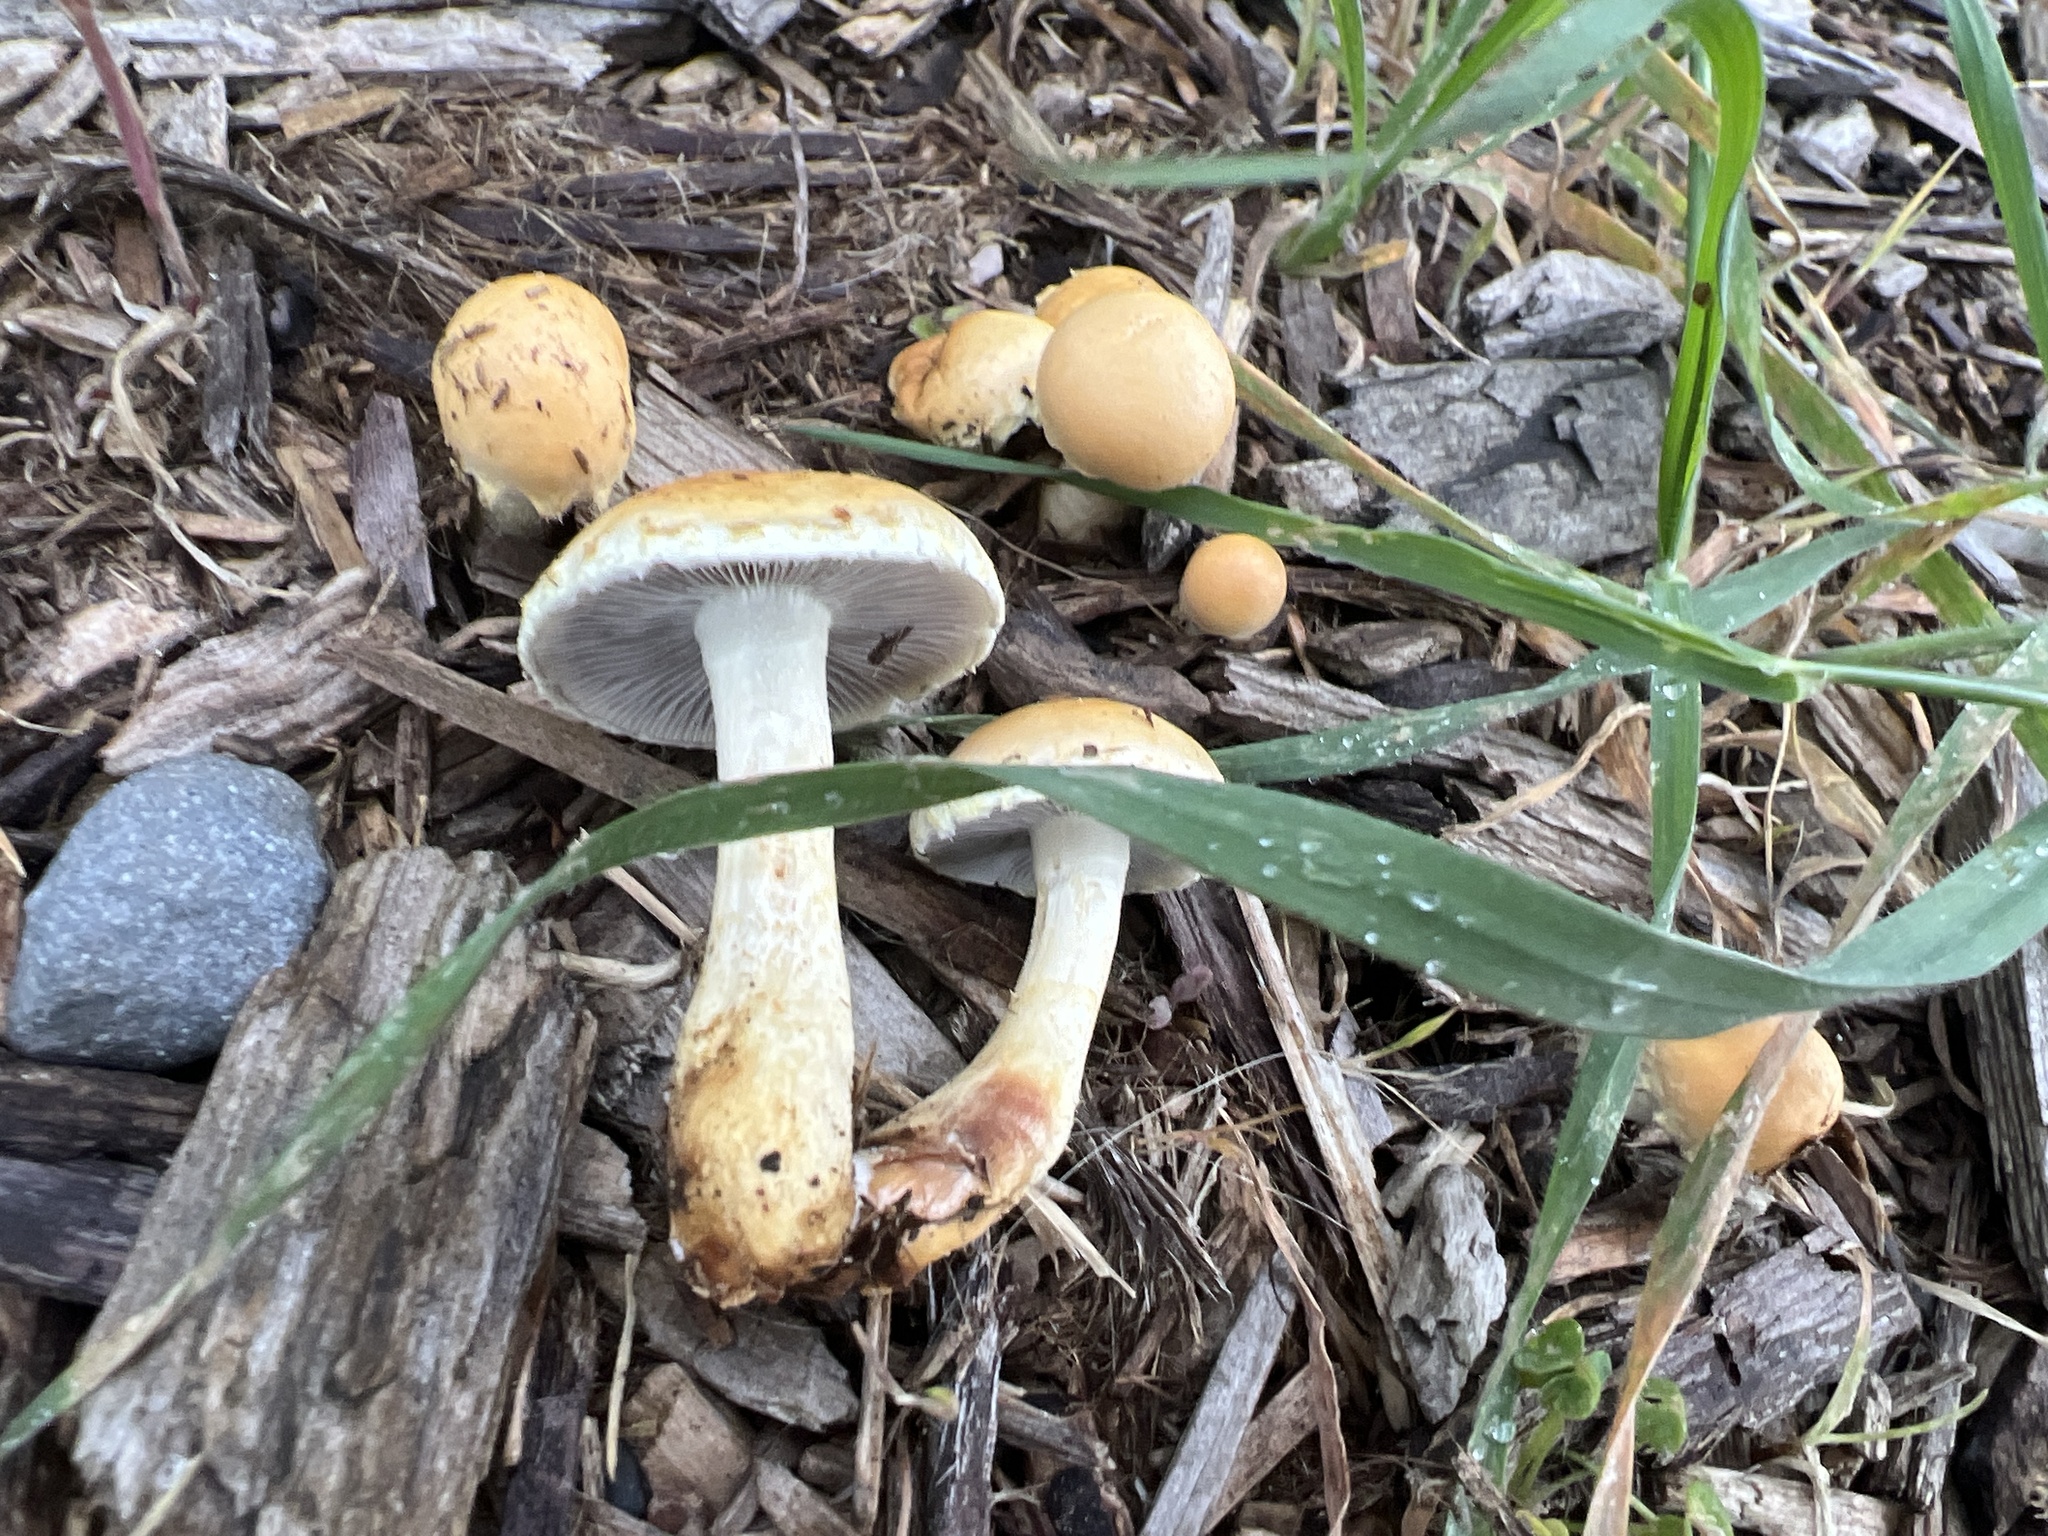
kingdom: Fungi
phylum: Basidiomycota
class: Agaricomycetes
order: Agaricales
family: Strophariaceae
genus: Leratiomyces
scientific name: Leratiomyces percevalii
